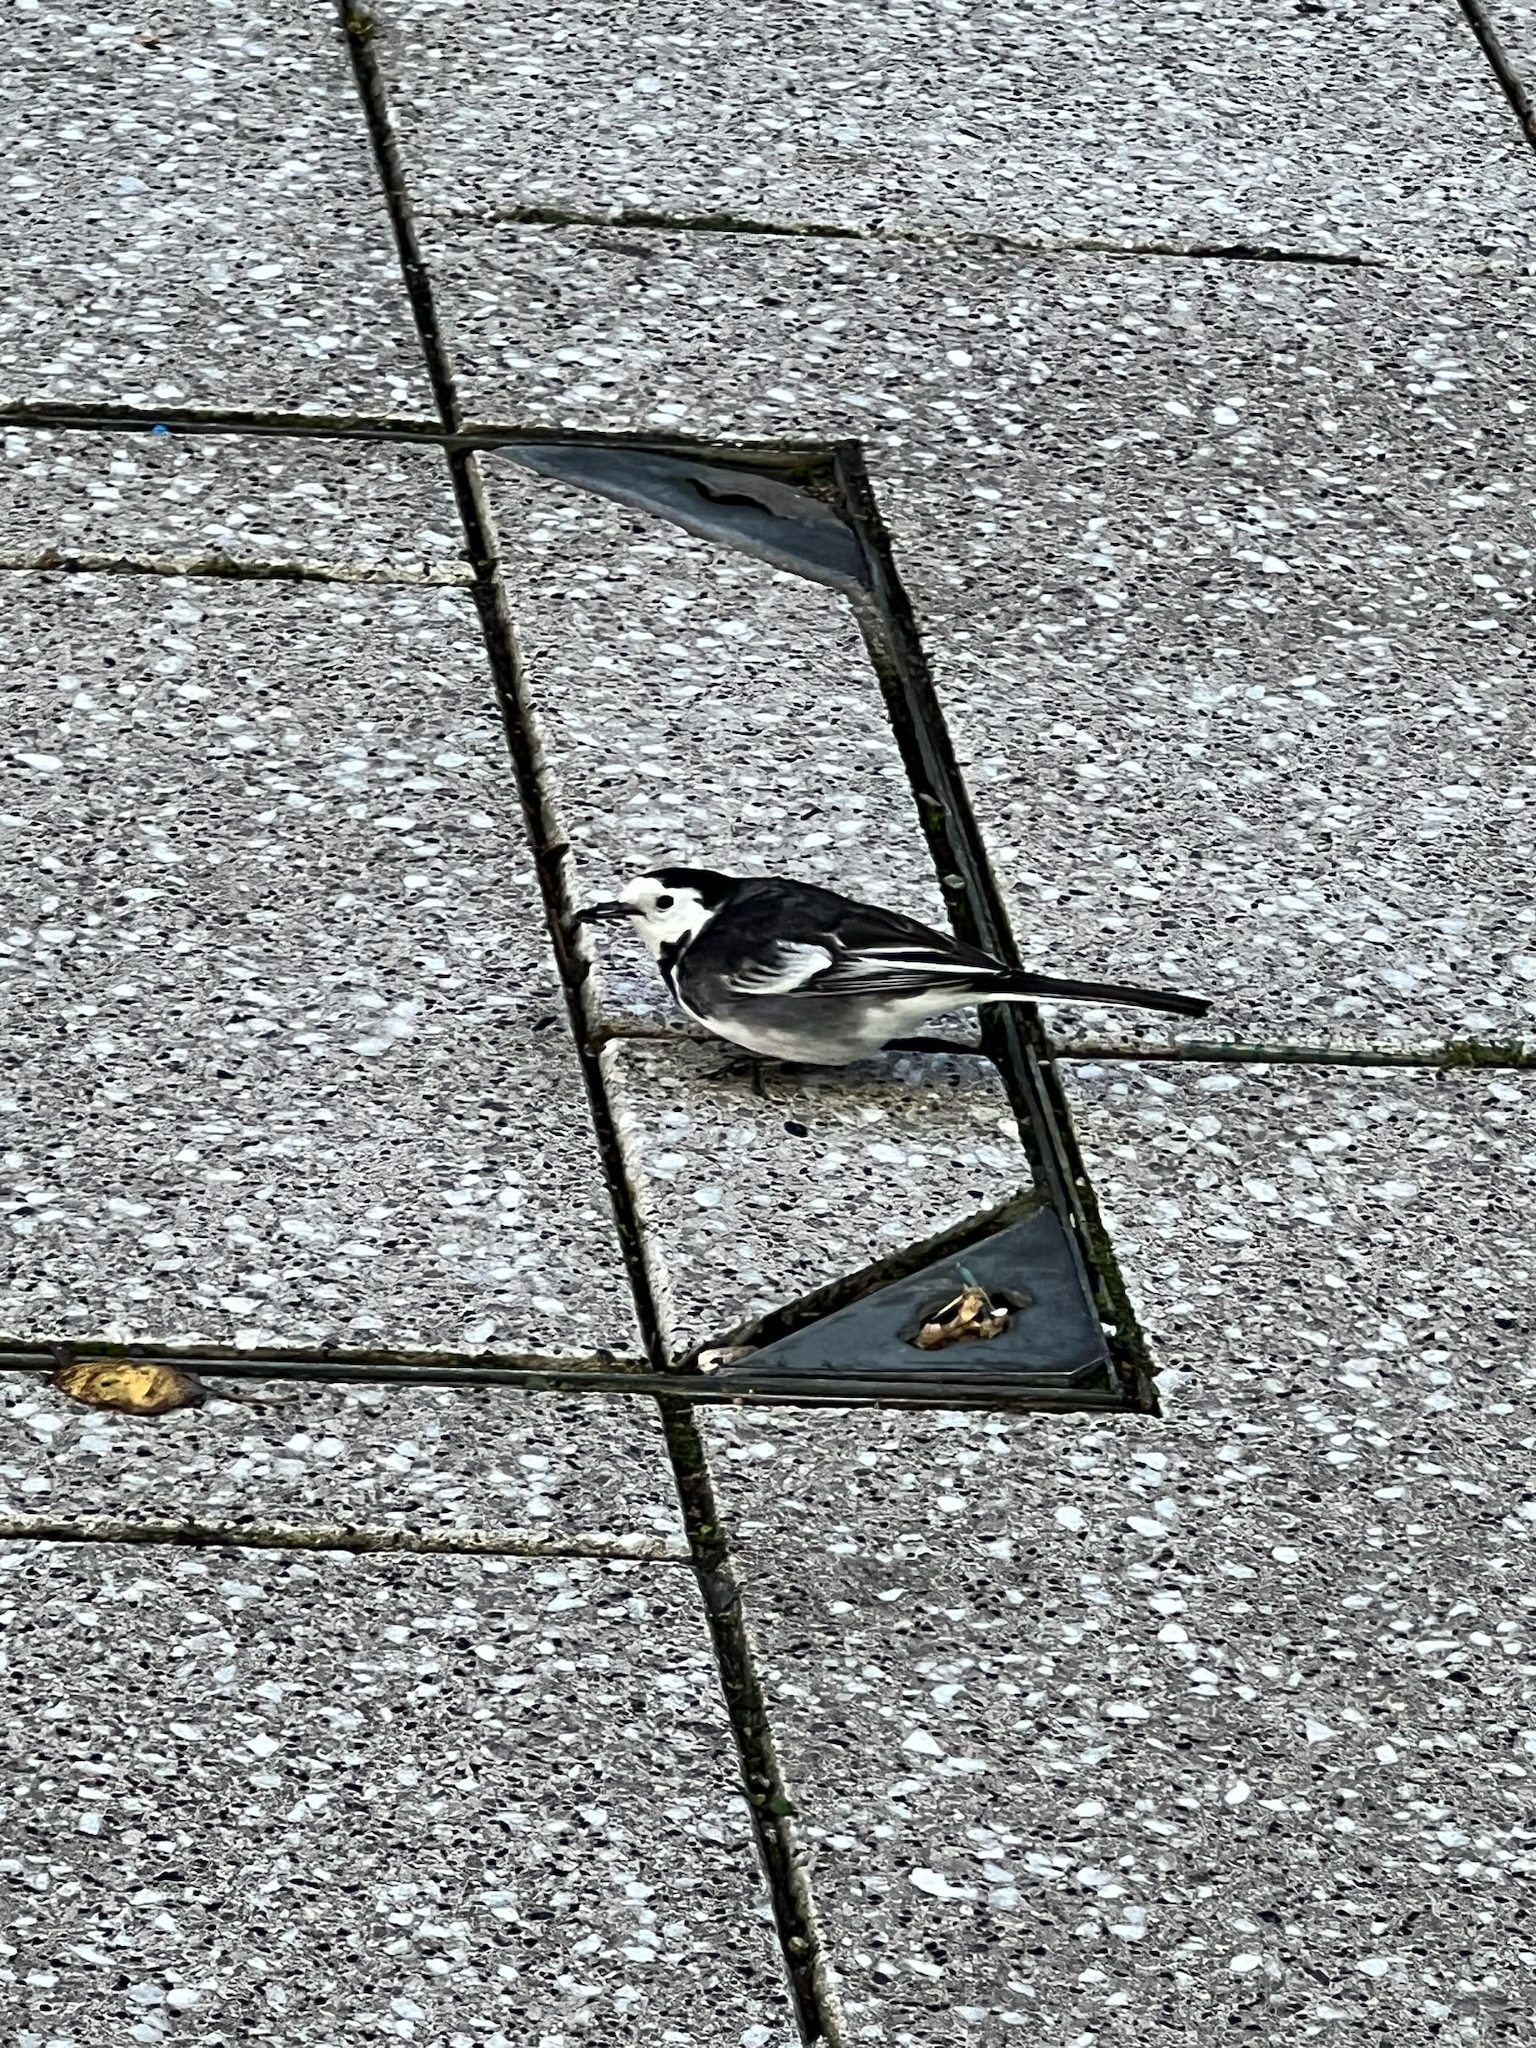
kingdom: Animalia
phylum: Chordata
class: Aves
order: Passeriformes
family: Motacillidae
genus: Motacilla
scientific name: Motacilla alba
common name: White wagtail
